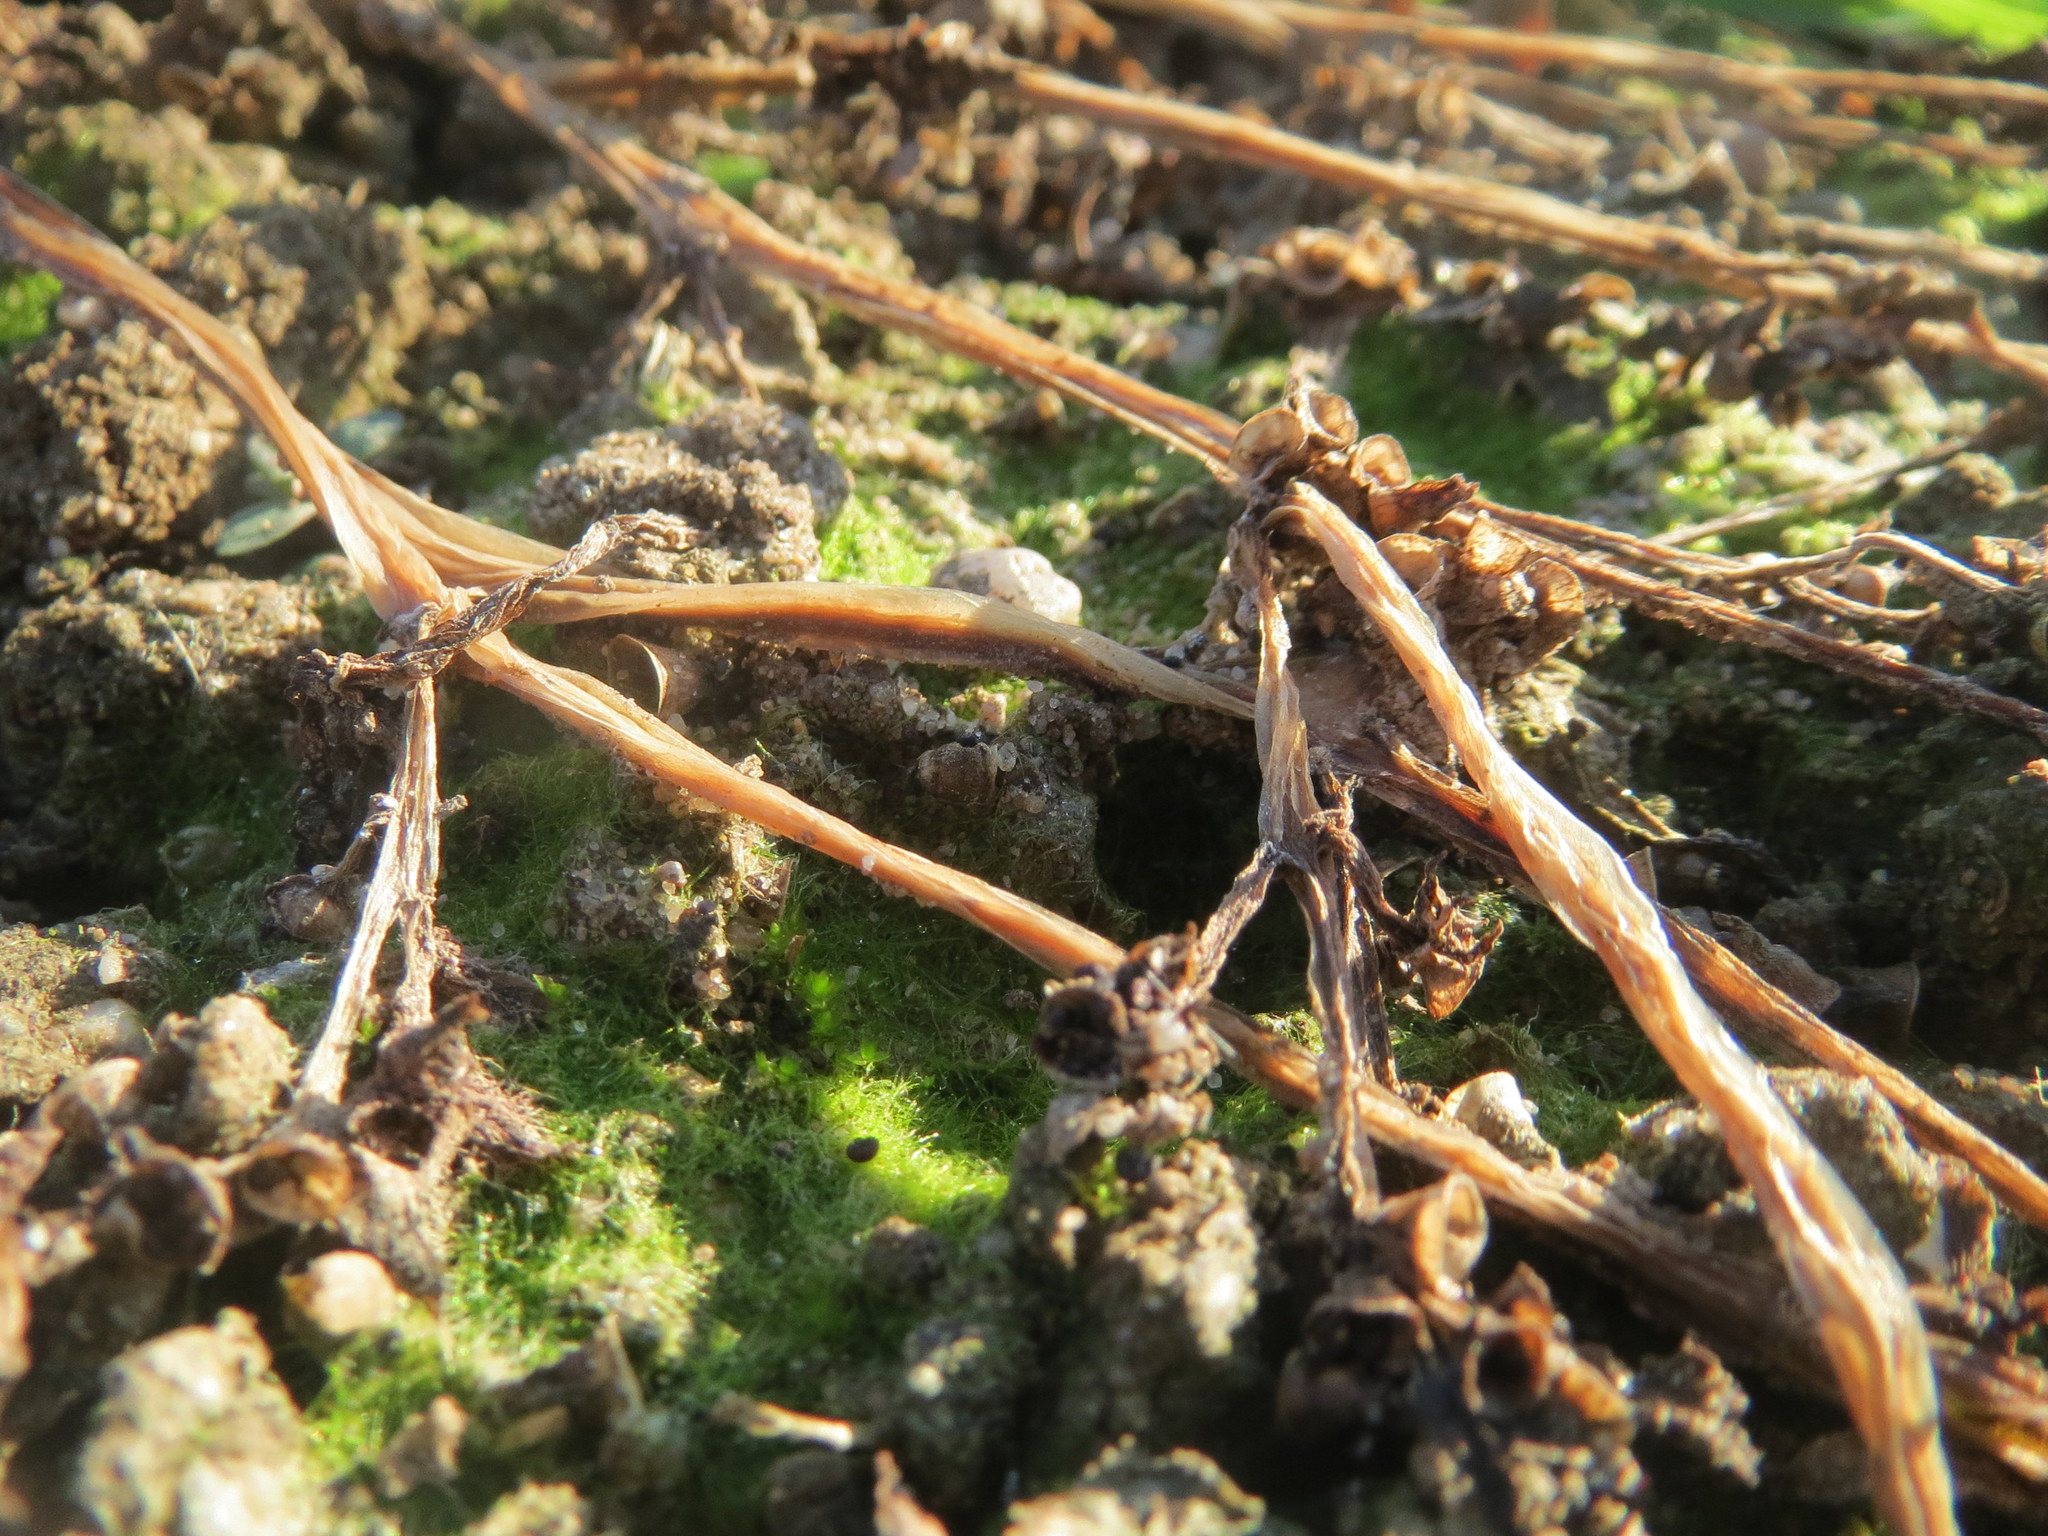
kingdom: Plantae
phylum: Tracheophyta
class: Magnoliopsida
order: Caryophyllales
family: Portulacaceae
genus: Portulaca
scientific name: Portulaca oleracea
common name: Common purslane
